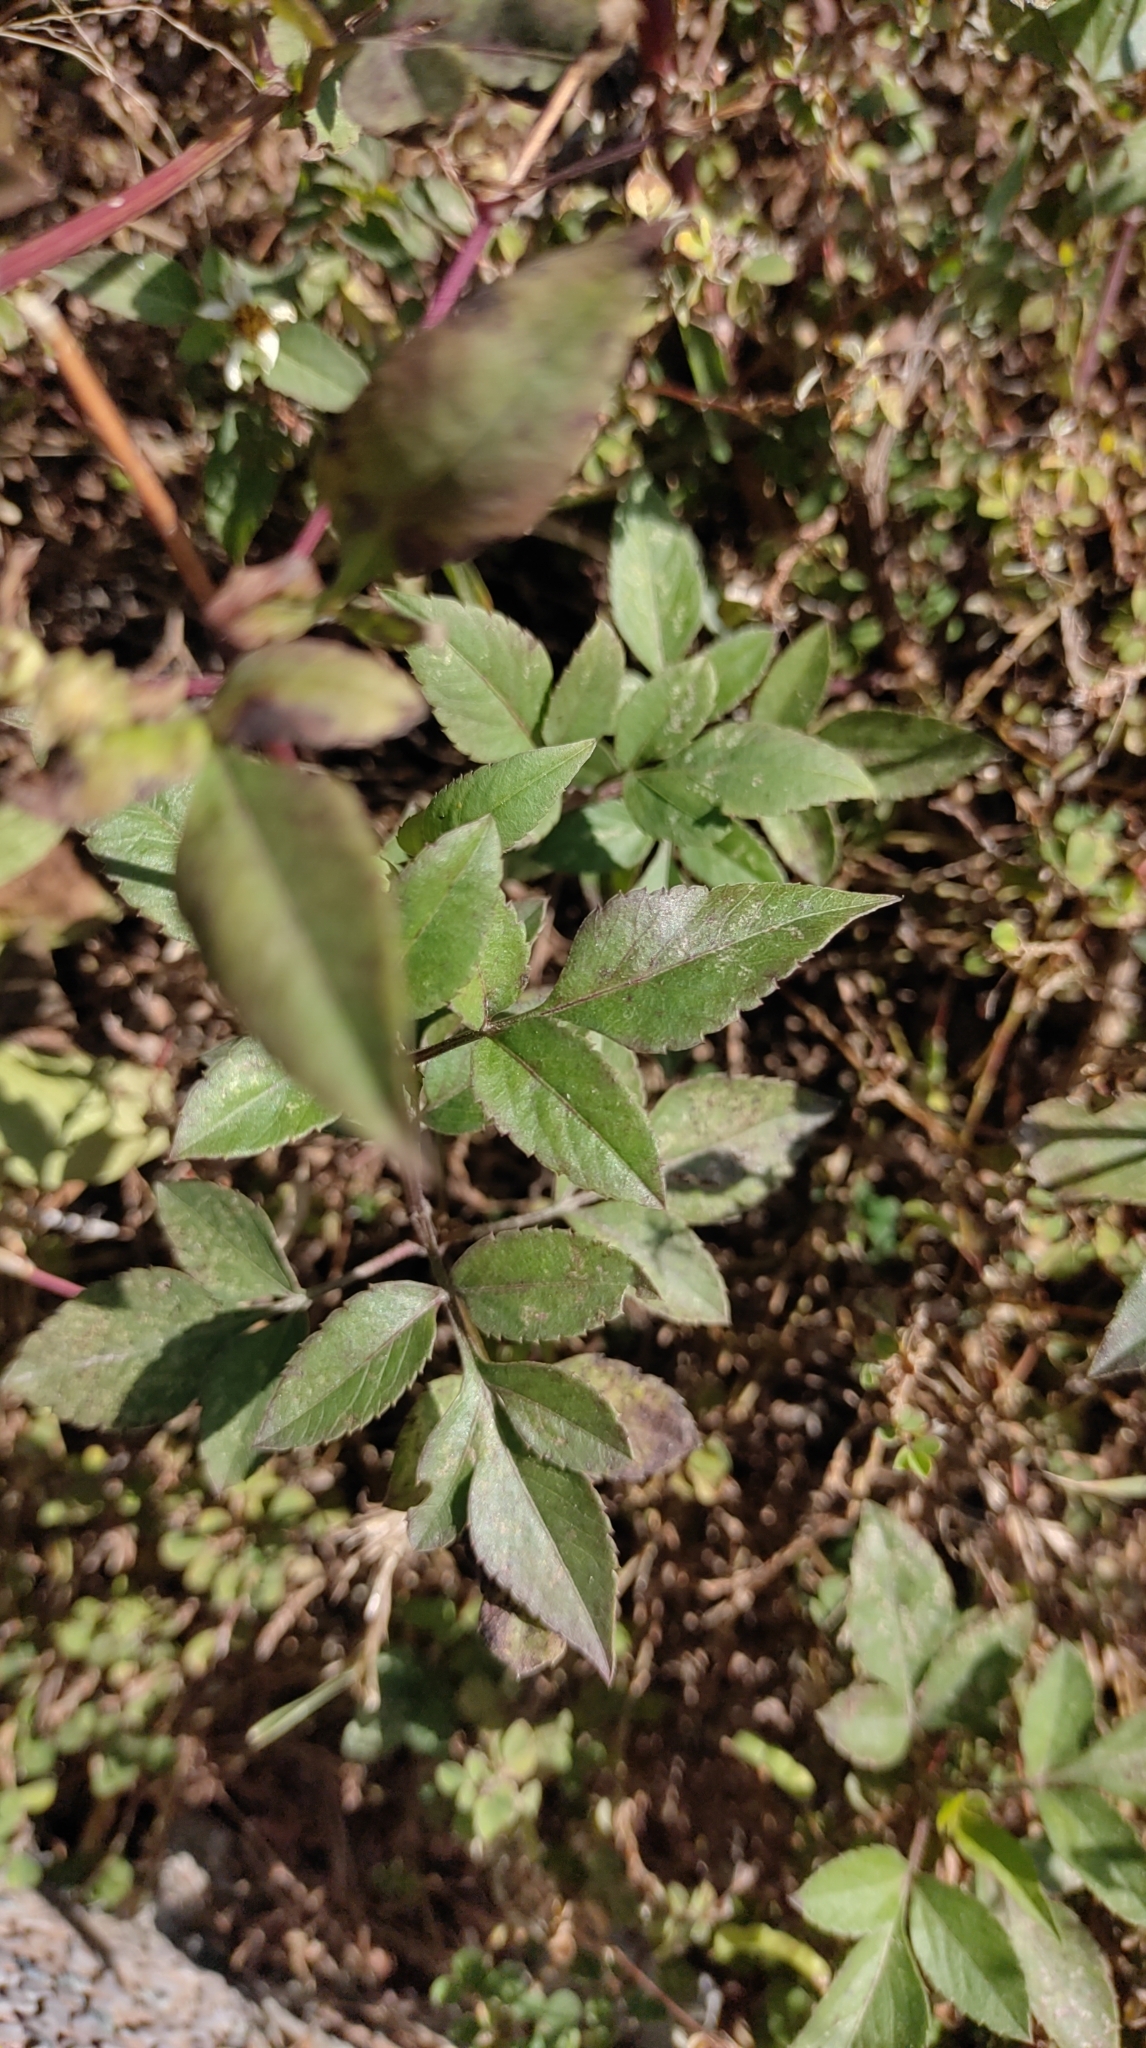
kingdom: Plantae
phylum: Tracheophyta
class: Magnoliopsida
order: Asterales
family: Asteraceae
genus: Bidens
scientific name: Bidens alba
